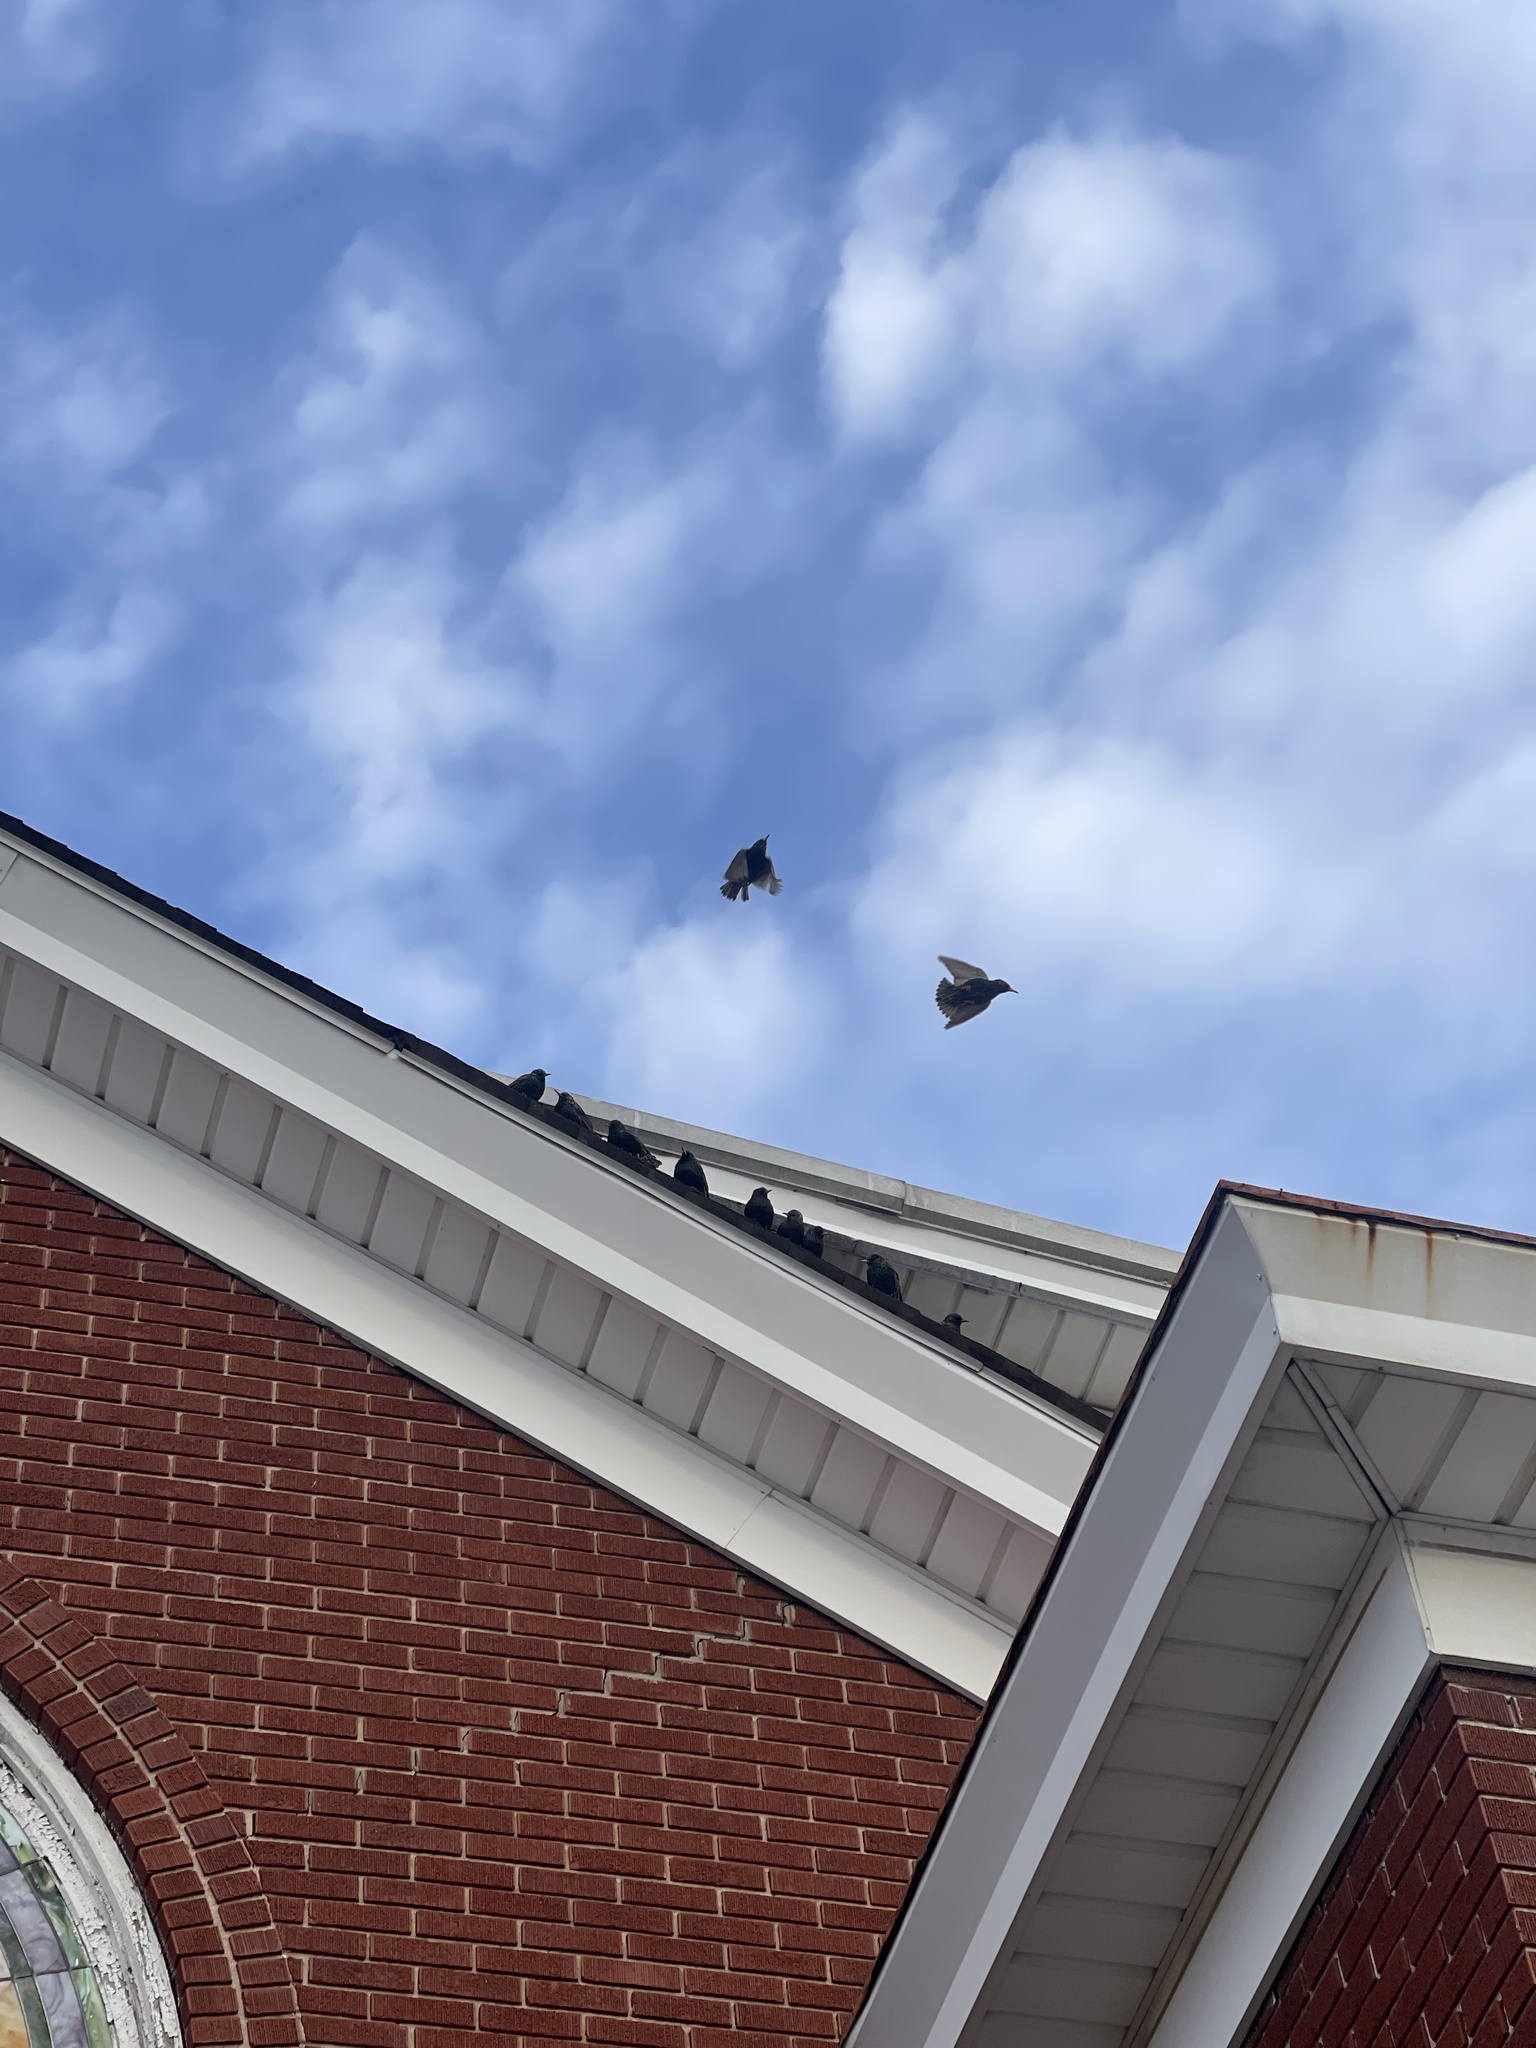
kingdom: Animalia
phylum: Chordata
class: Aves
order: Passeriformes
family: Sturnidae
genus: Sturnus
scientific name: Sturnus vulgaris
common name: Common starling
